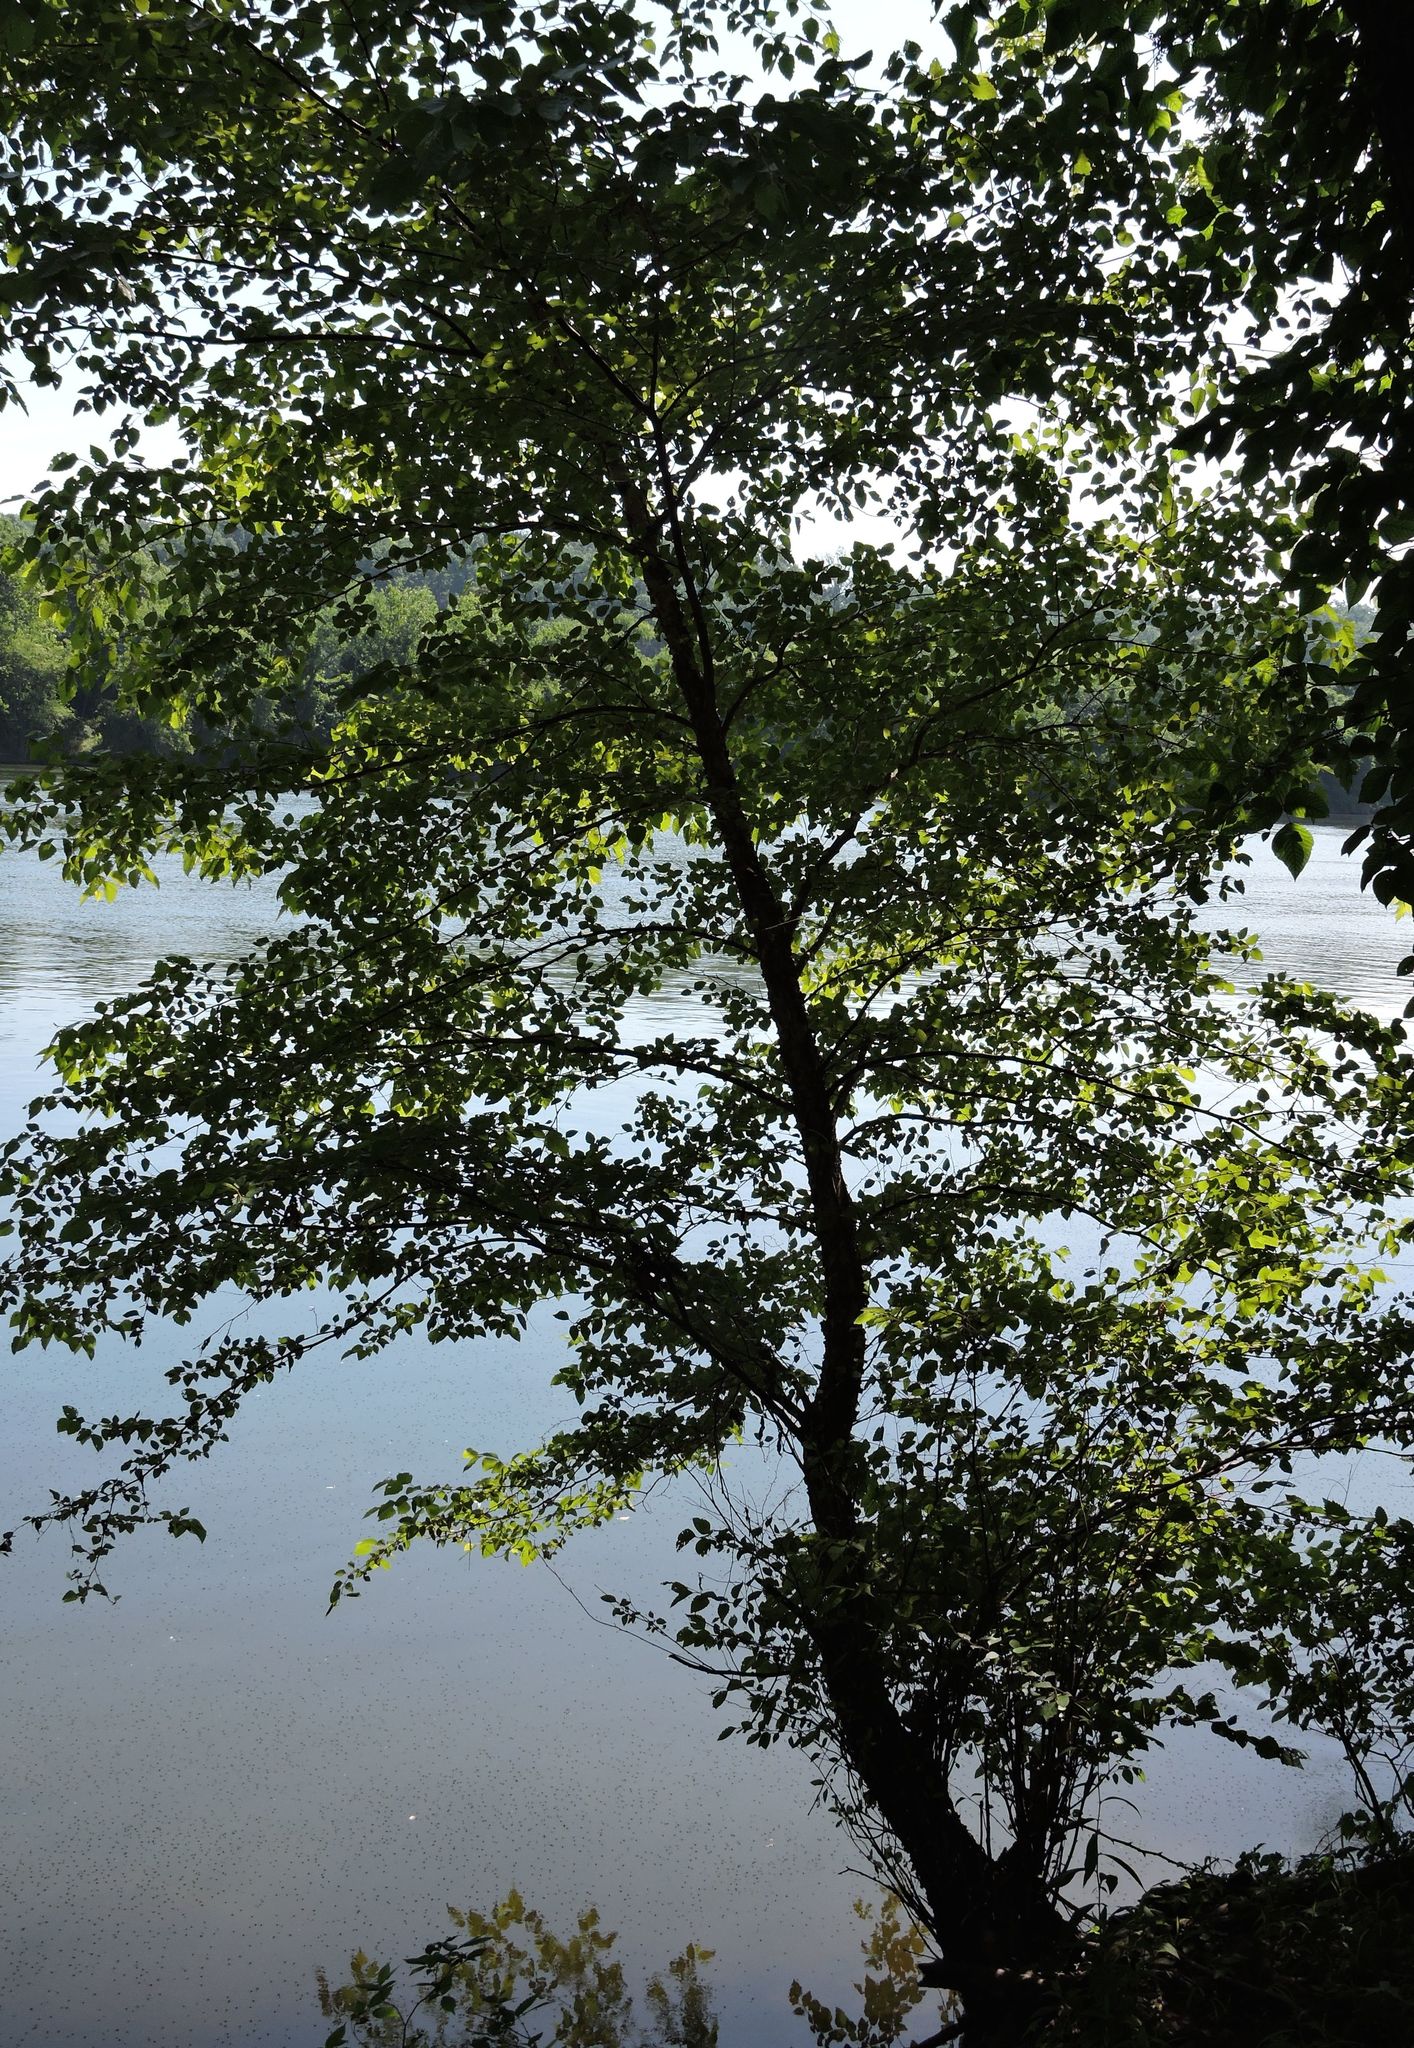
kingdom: Plantae
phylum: Tracheophyta
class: Magnoliopsida
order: Fagales
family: Betulaceae
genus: Betula
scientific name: Betula nigra
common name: Black birch
